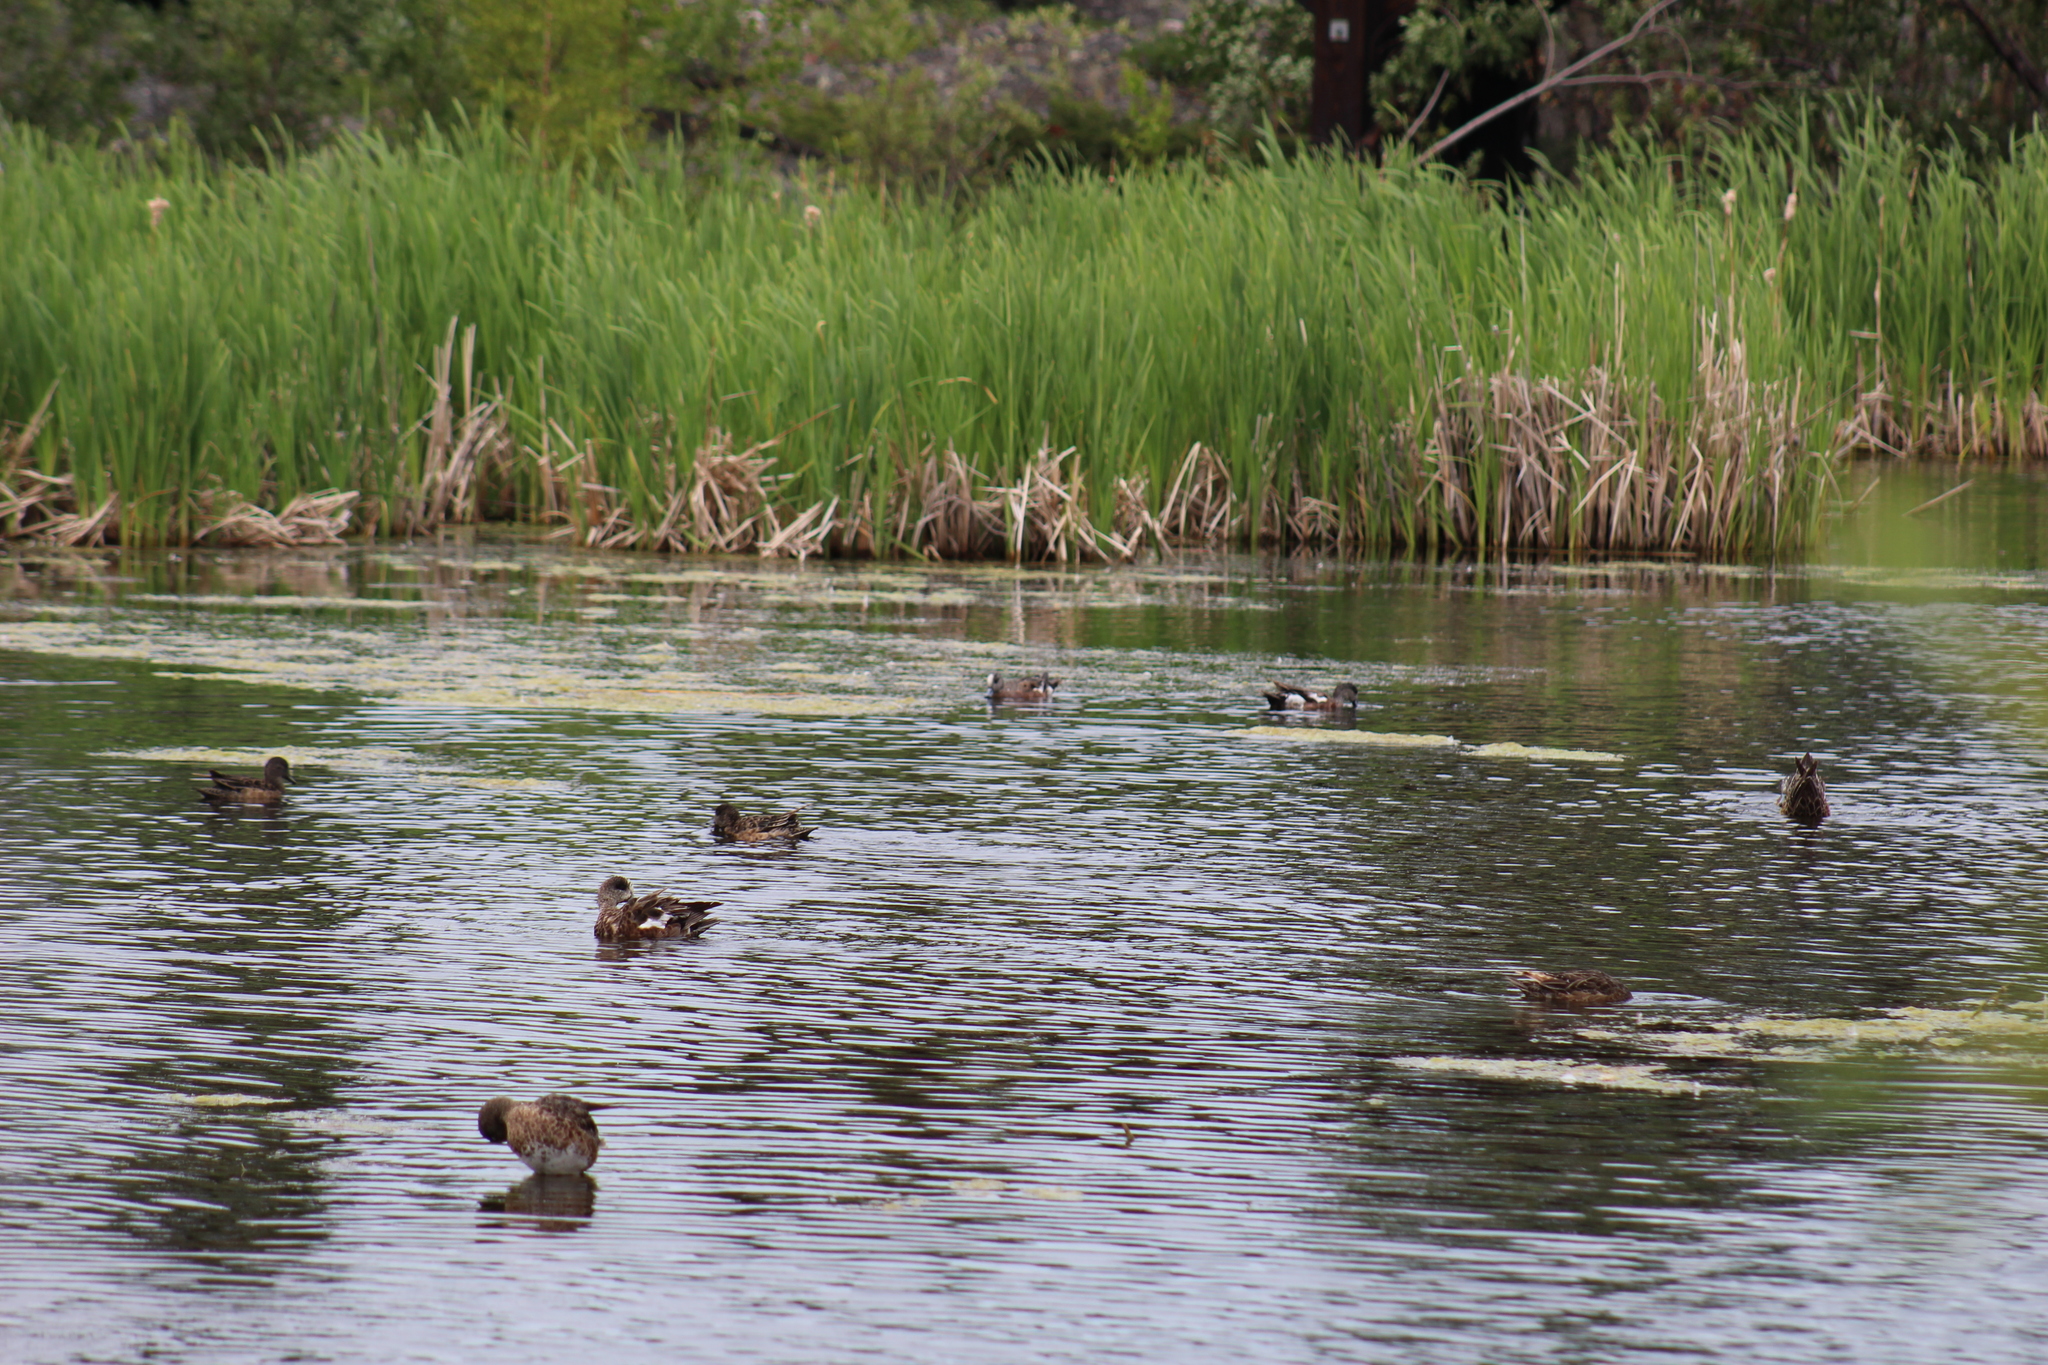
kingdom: Animalia
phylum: Chordata
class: Aves
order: Anseriformes
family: Anatidae
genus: Mareca
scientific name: Mareca americana
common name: American wigeon
